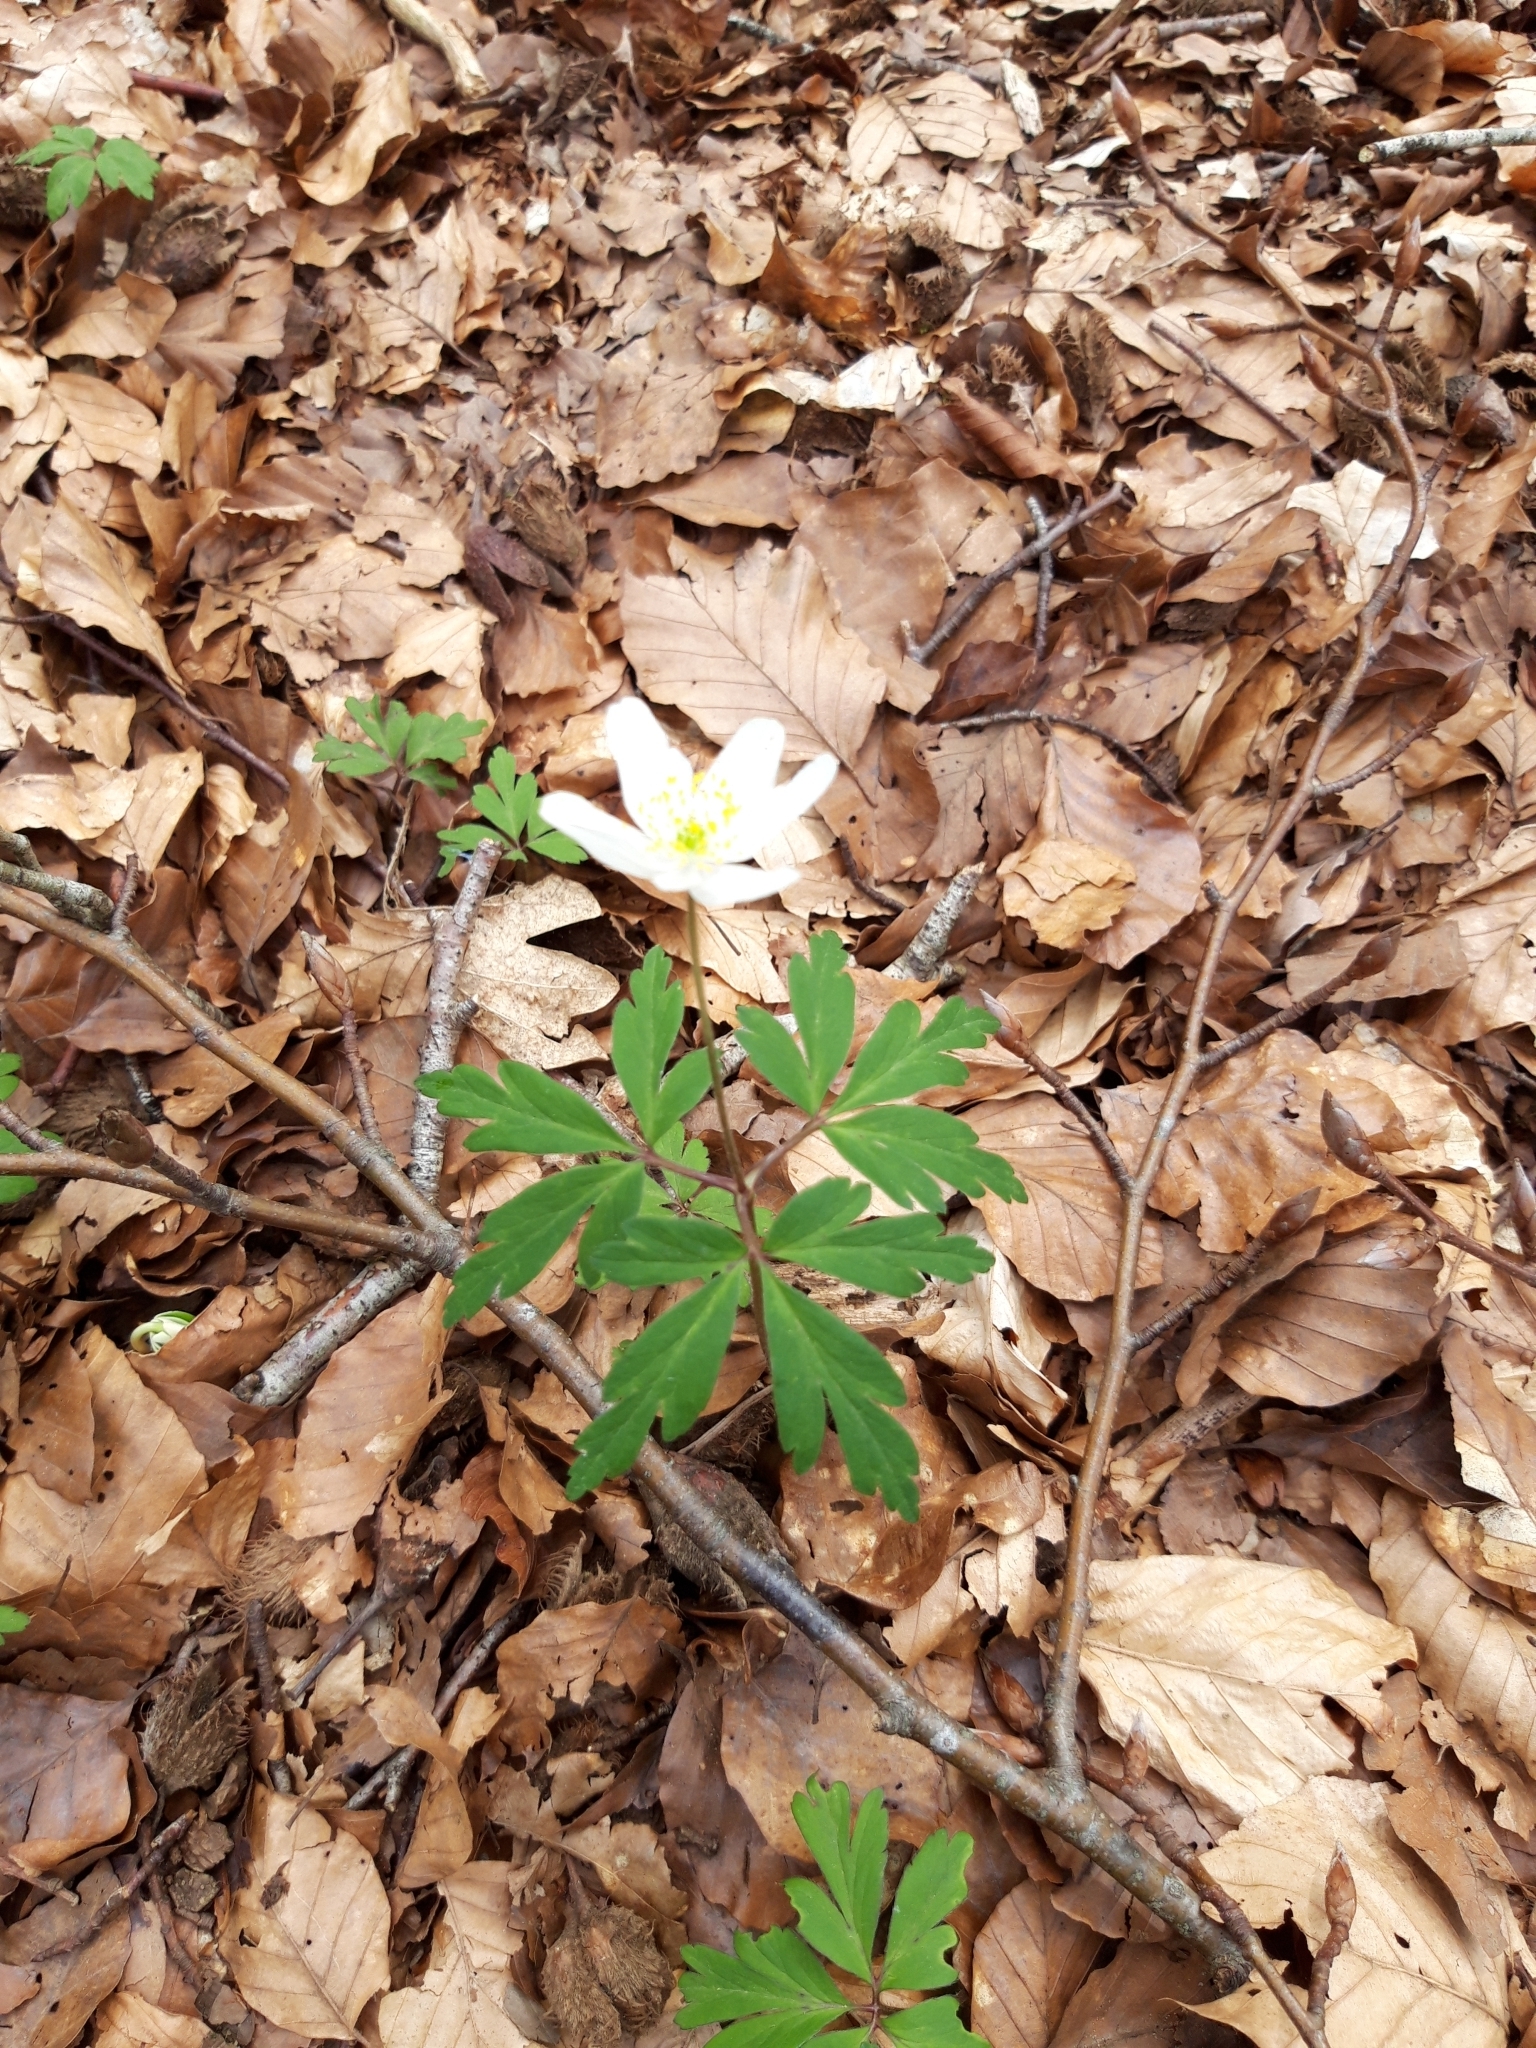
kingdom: Plantae
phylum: Tracheophyta
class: Magnoliopsida
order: Ranunculales
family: Ranunculaceae
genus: Anemone
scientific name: Anemone nemorosa
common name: Wood anemone
